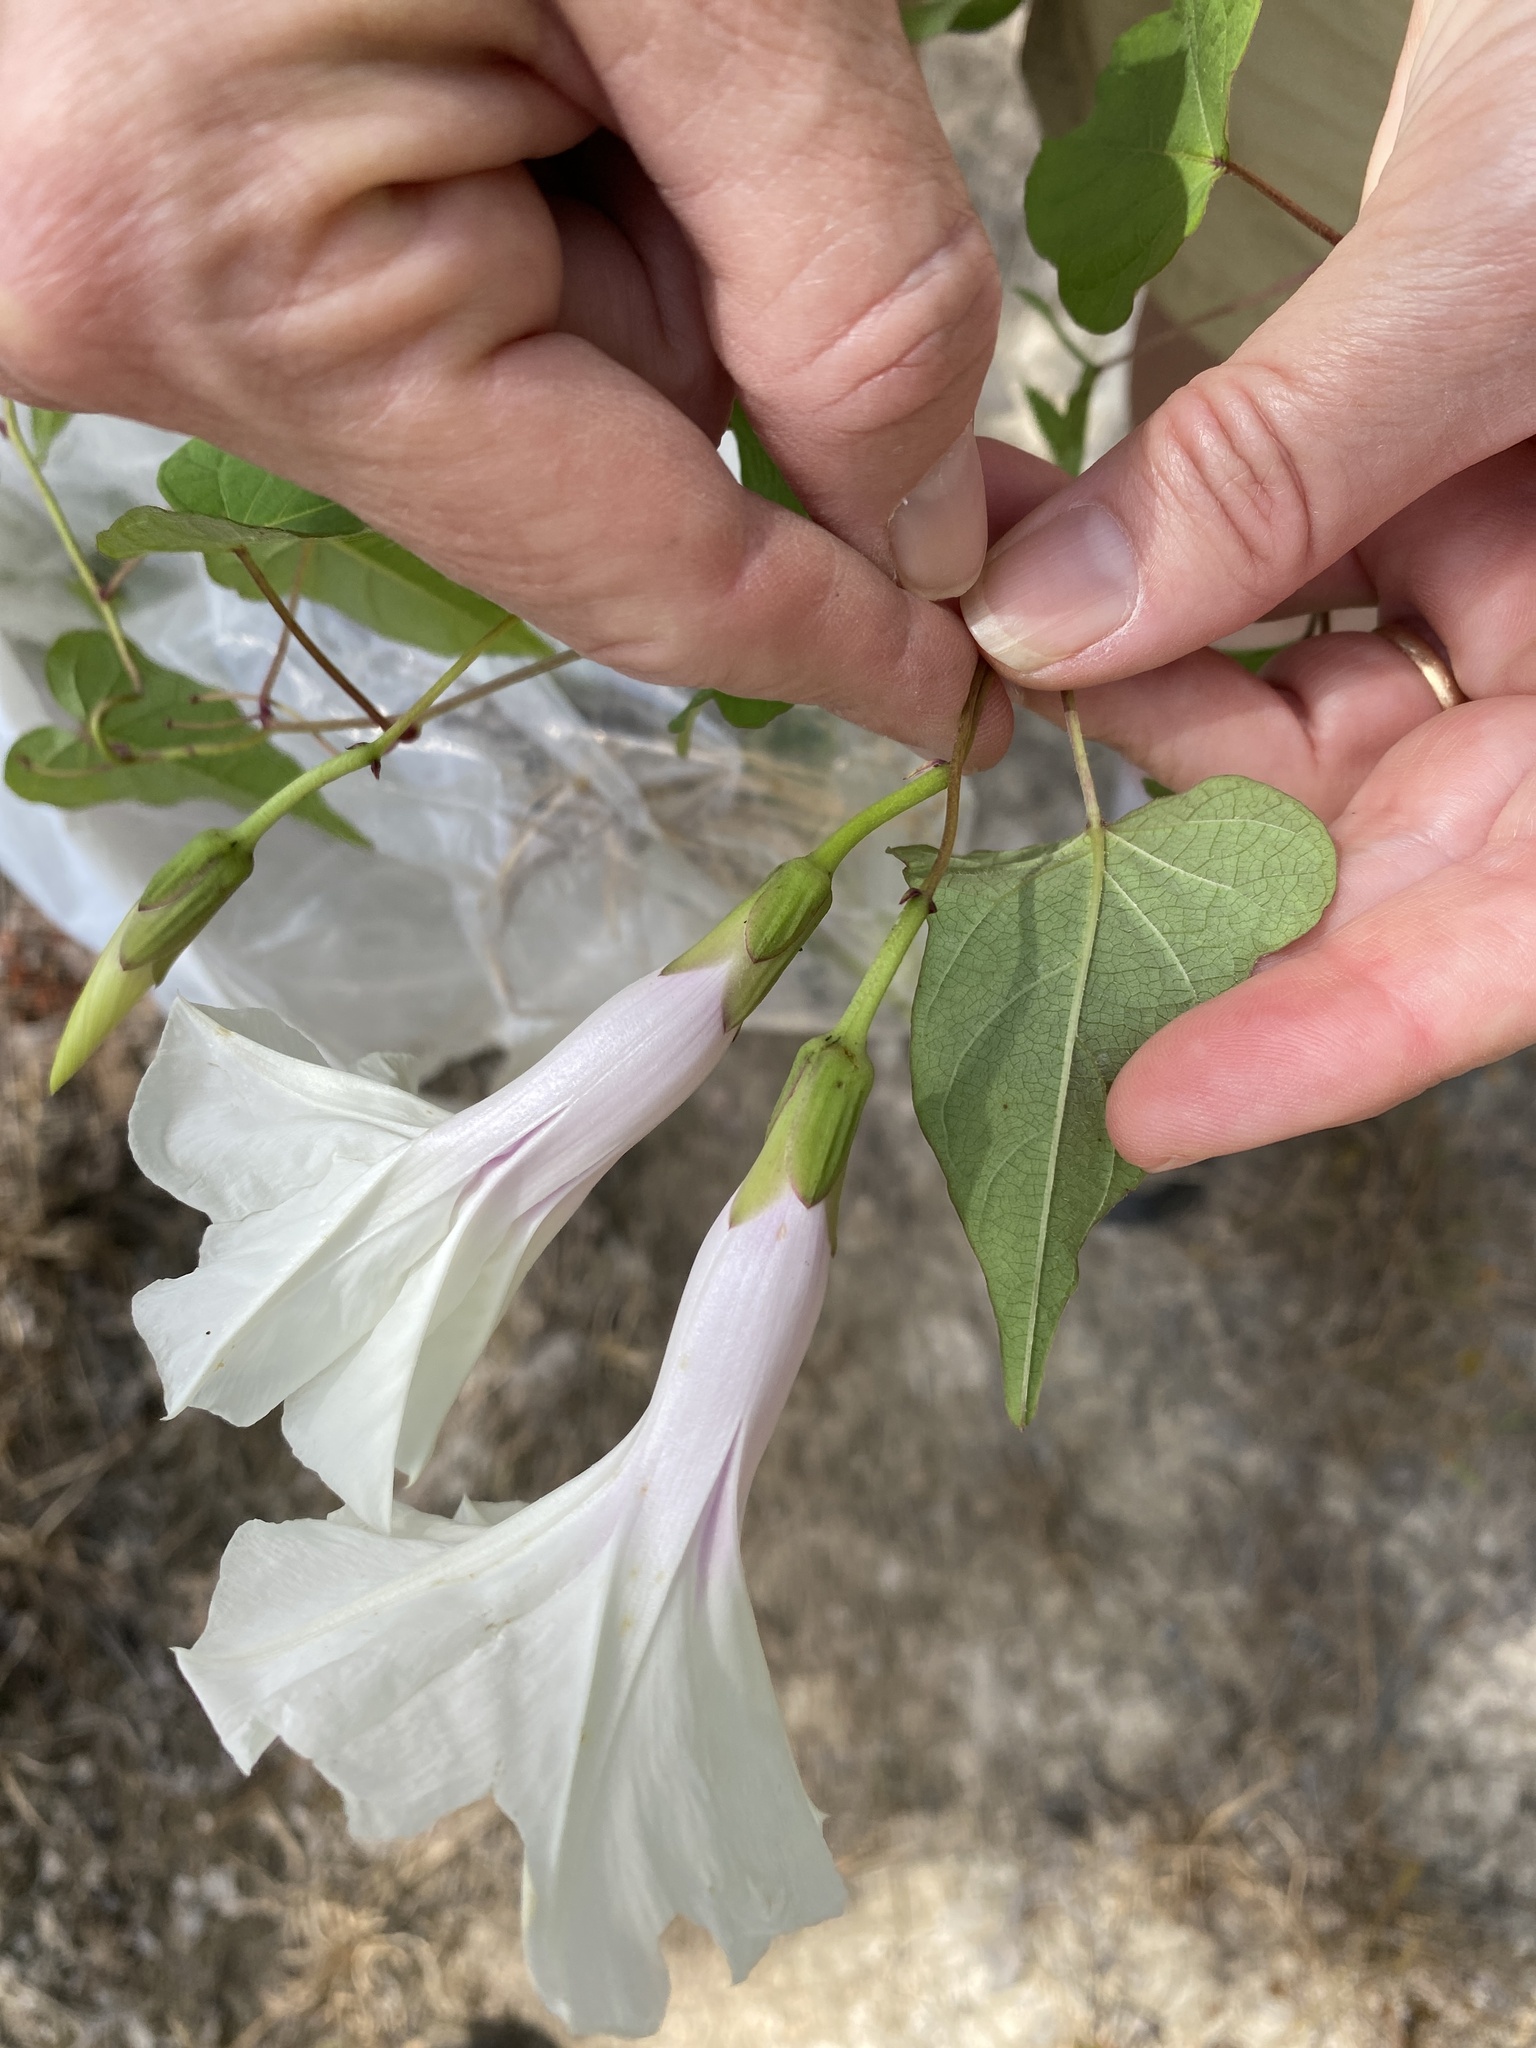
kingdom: Plantae
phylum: Tracheophyta
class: Magnoliopsida
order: Solanales
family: Convolvulaceae
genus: Ipomoea
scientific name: Ipomoea pandurata
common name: Man-of-the-earth
